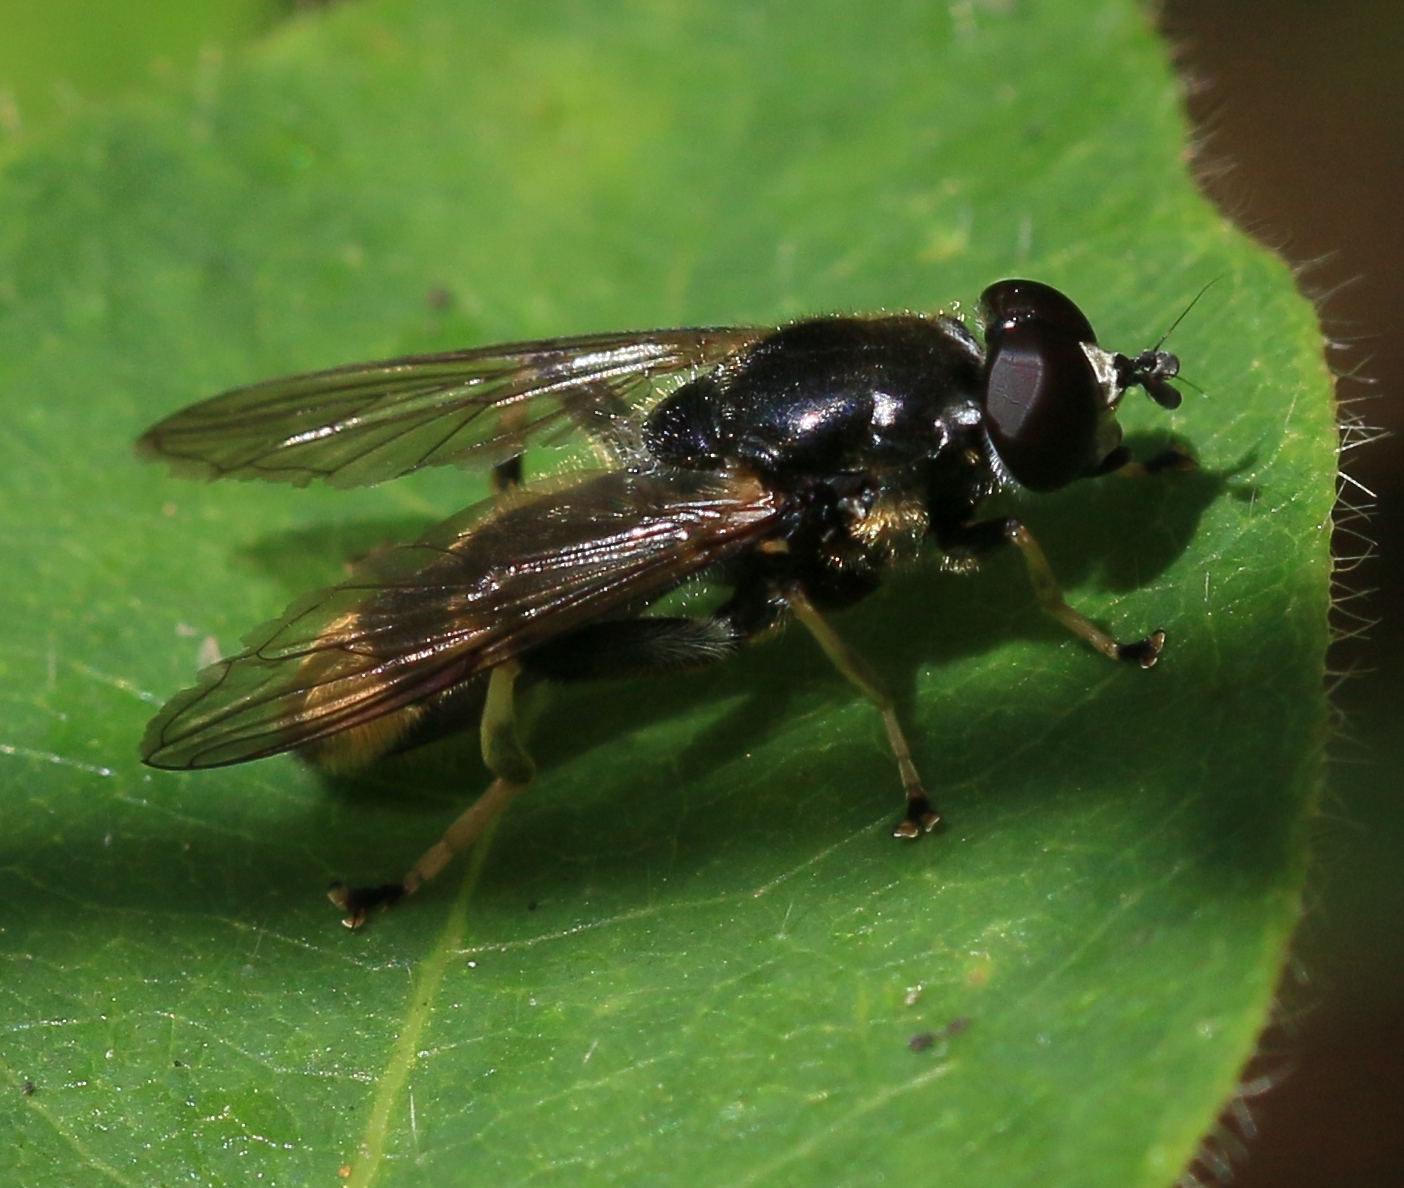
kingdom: Animalia
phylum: Arthropoda
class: Insecta
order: Diptera
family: Syrphidae
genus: Xylota
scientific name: Xylota sylvarum
